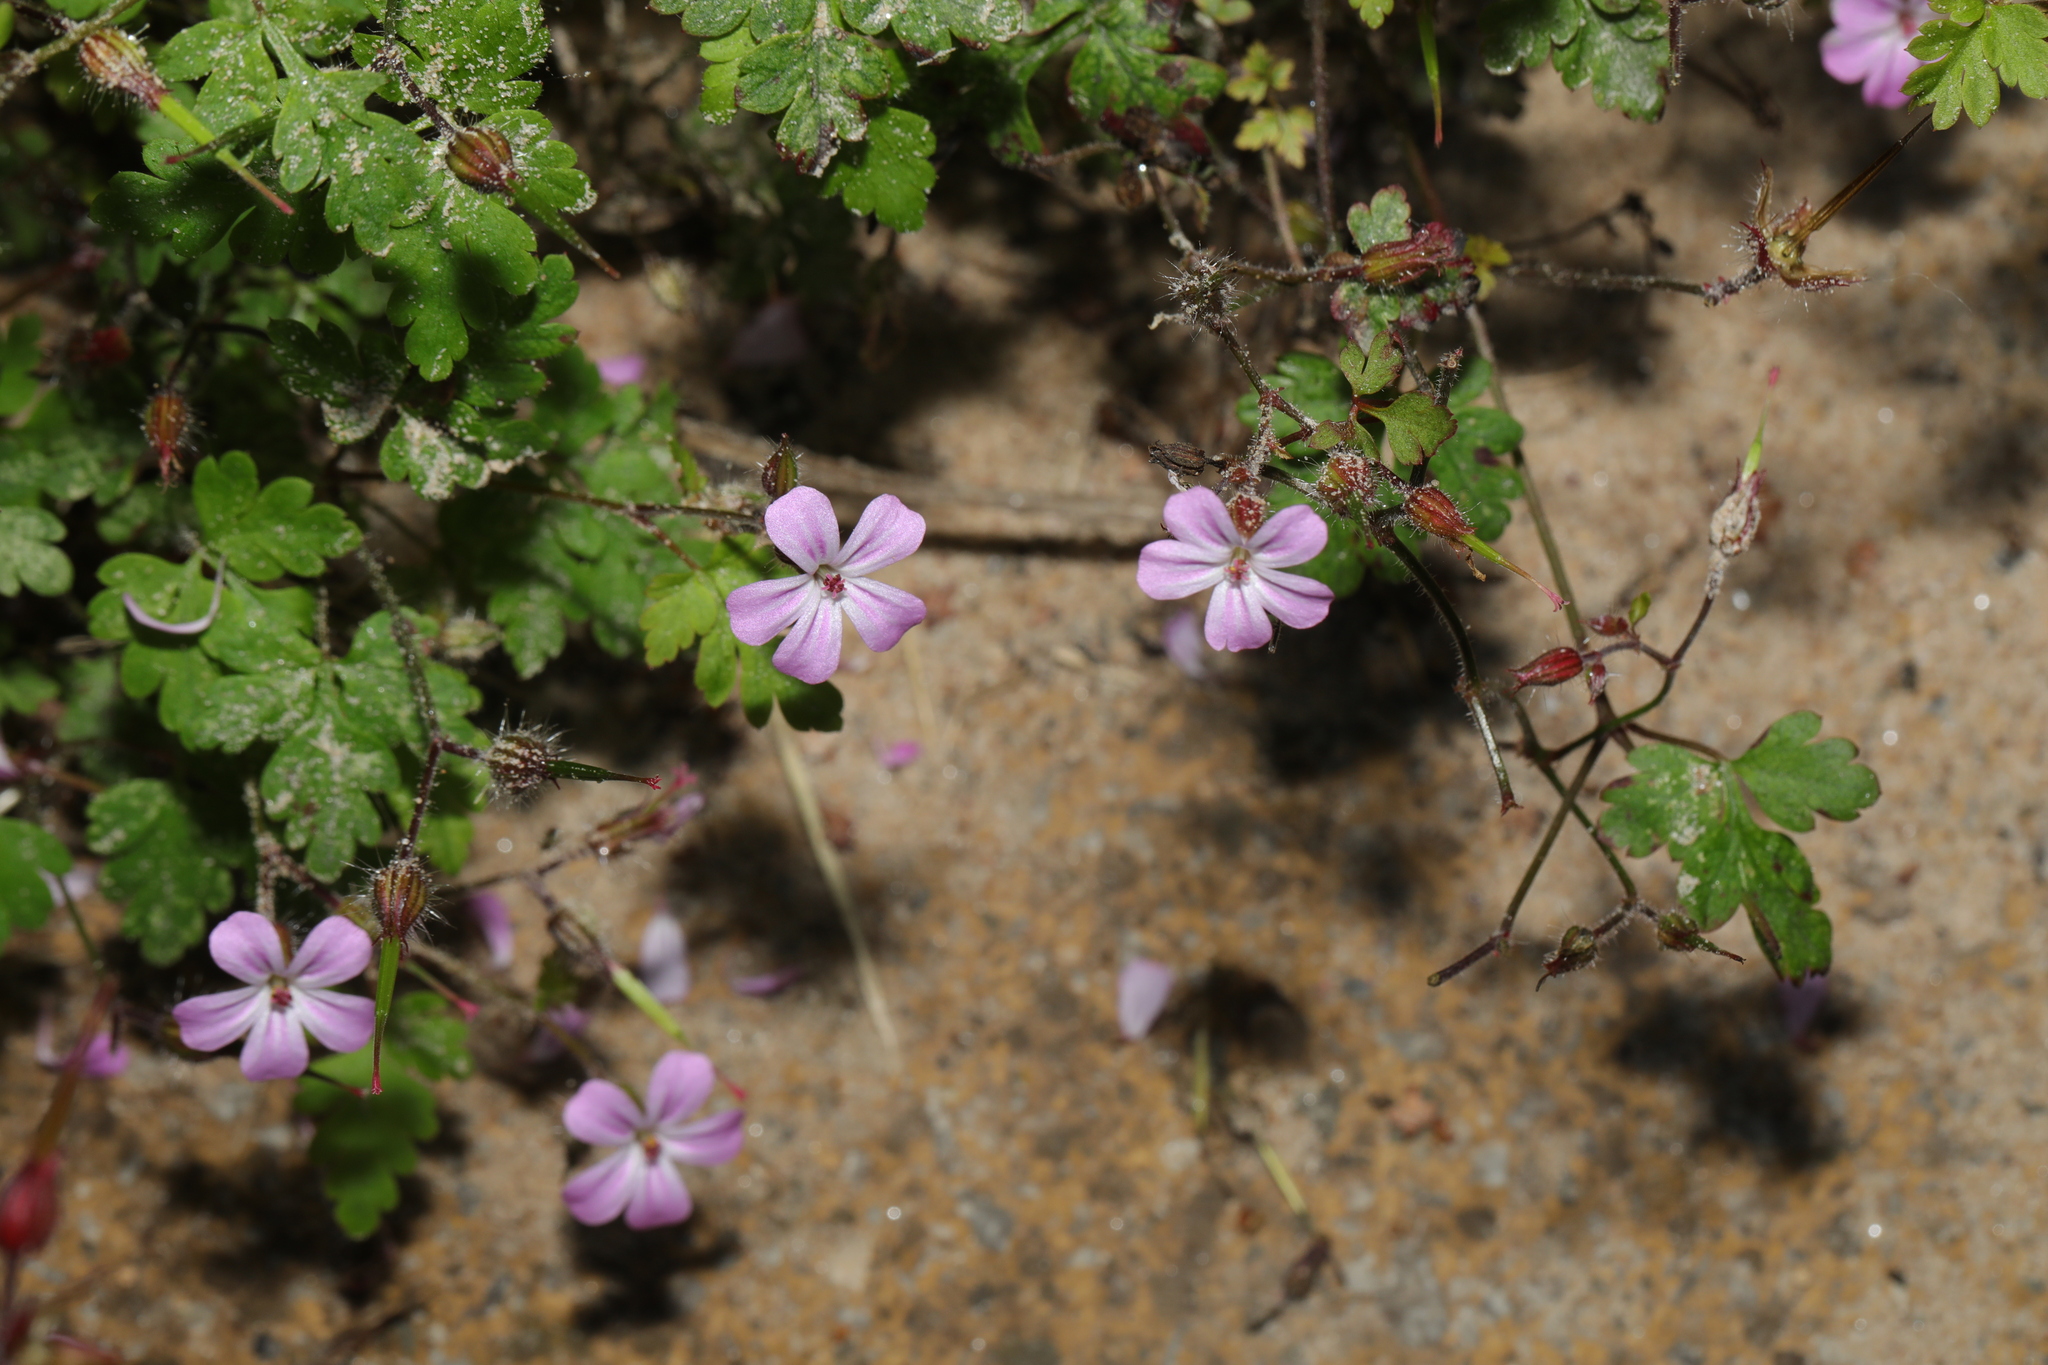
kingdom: Plantae
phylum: Tracheophyta
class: Magnoliopsida
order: Geraniales
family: Geraniaceae
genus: Geranium
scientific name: Geranium robertianum
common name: Herb-robert
